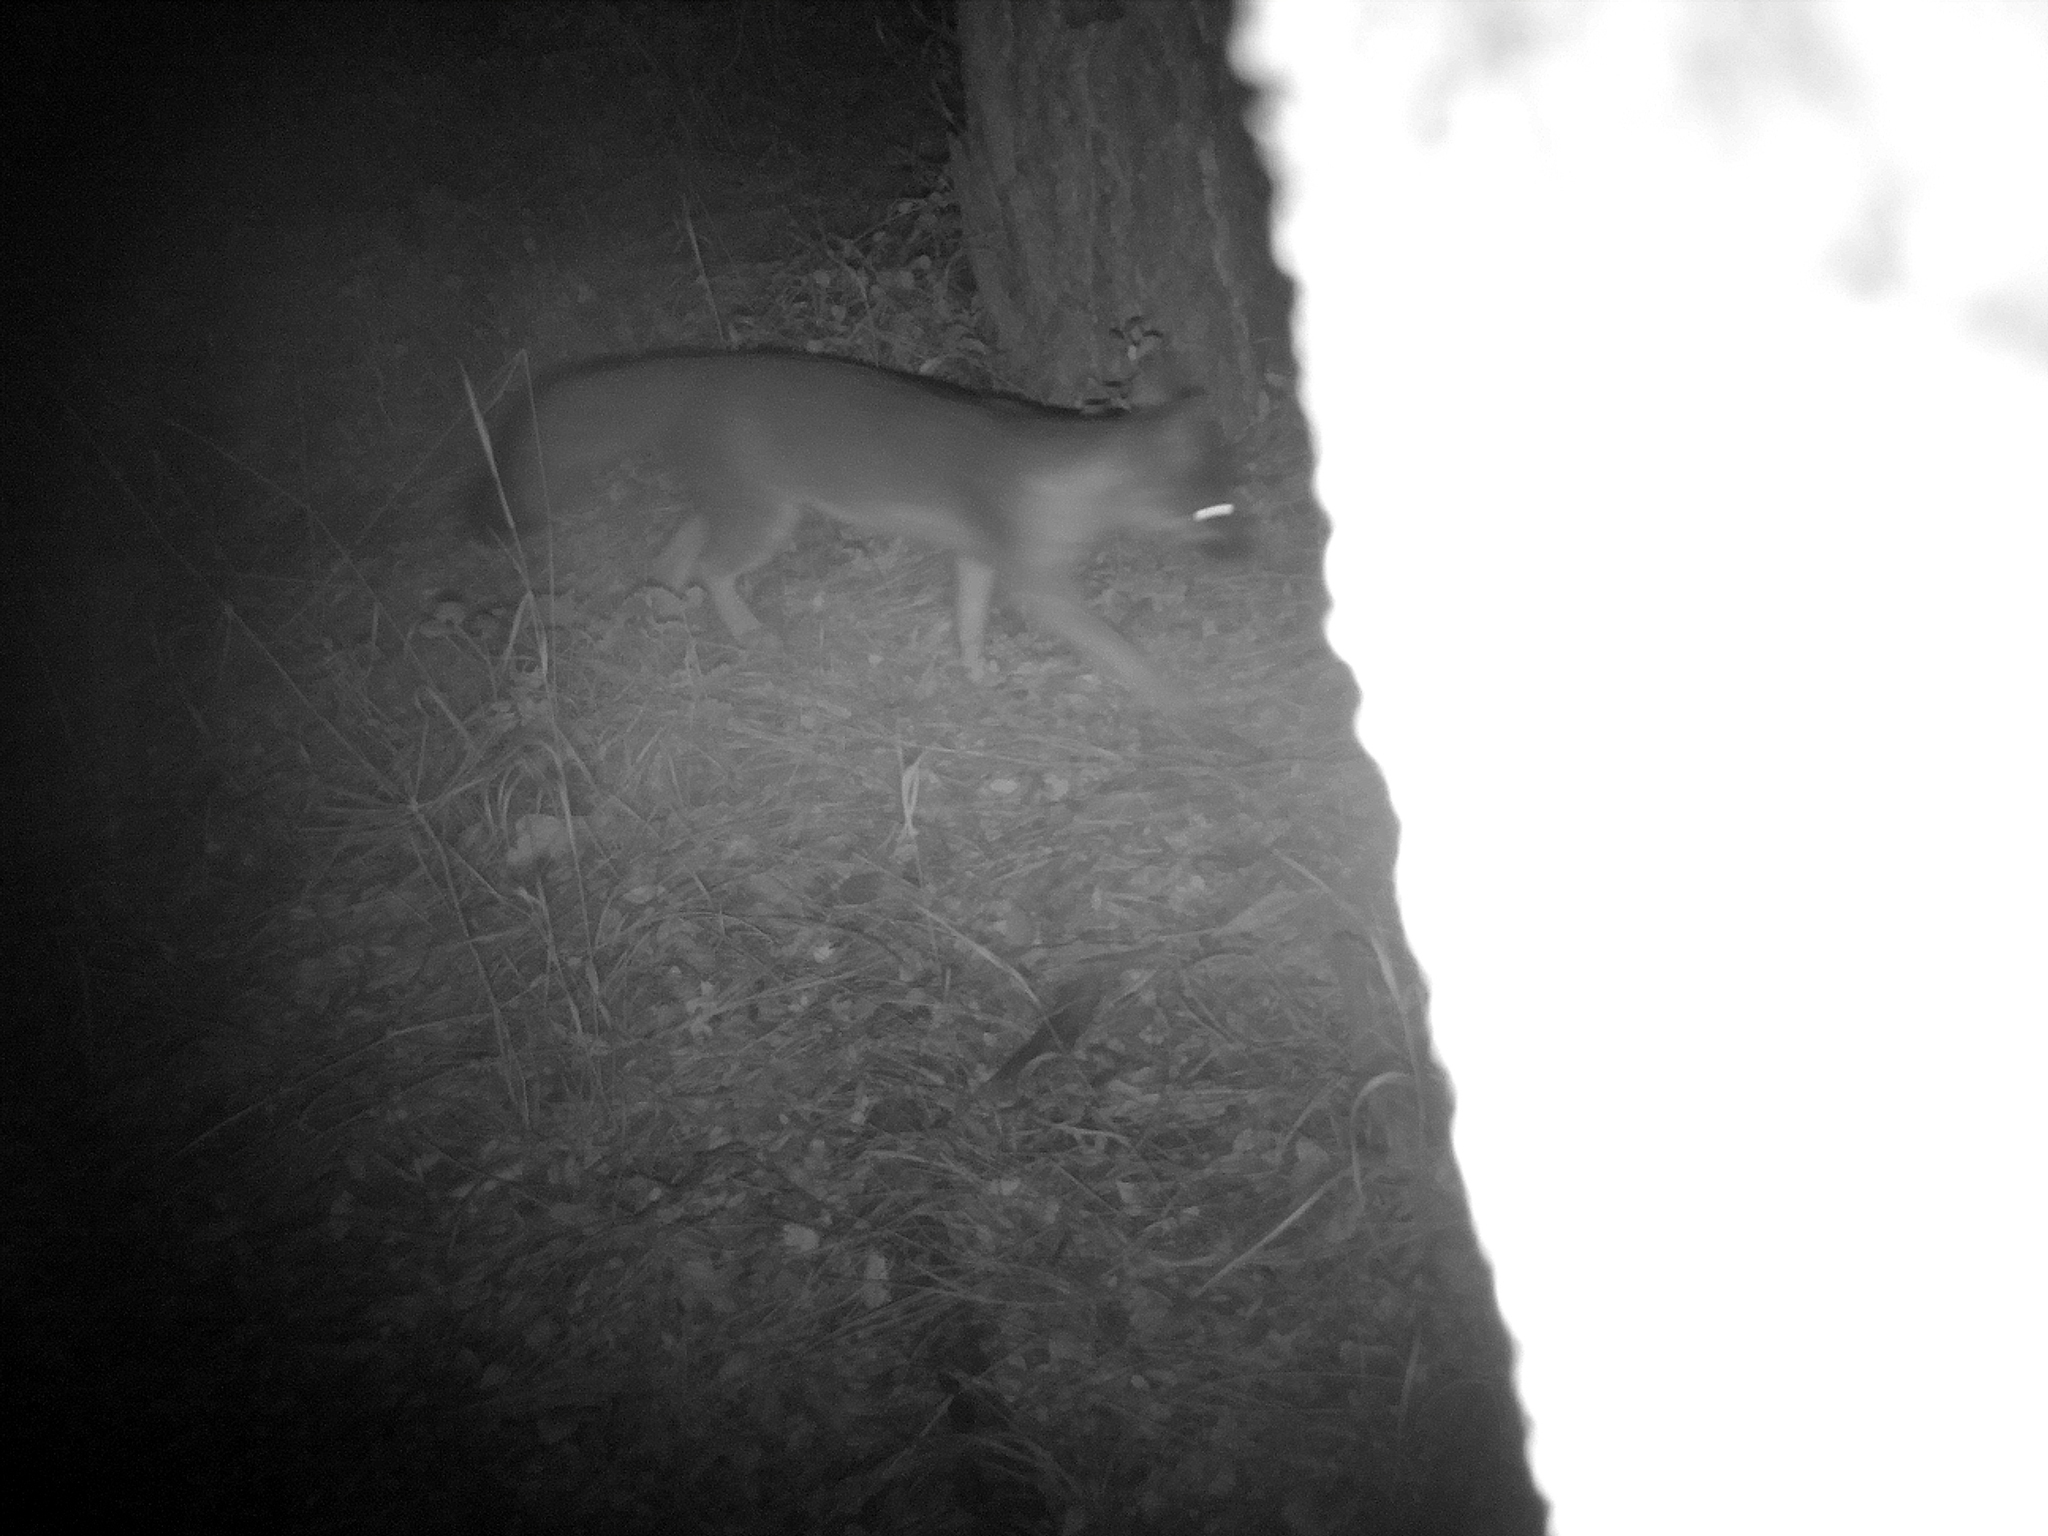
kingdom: Animalia
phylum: Chordata
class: Mammalia
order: Carnivora
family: Canidae
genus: Urocyon
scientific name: Urocyon cinereoargenteus
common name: Gray fox
